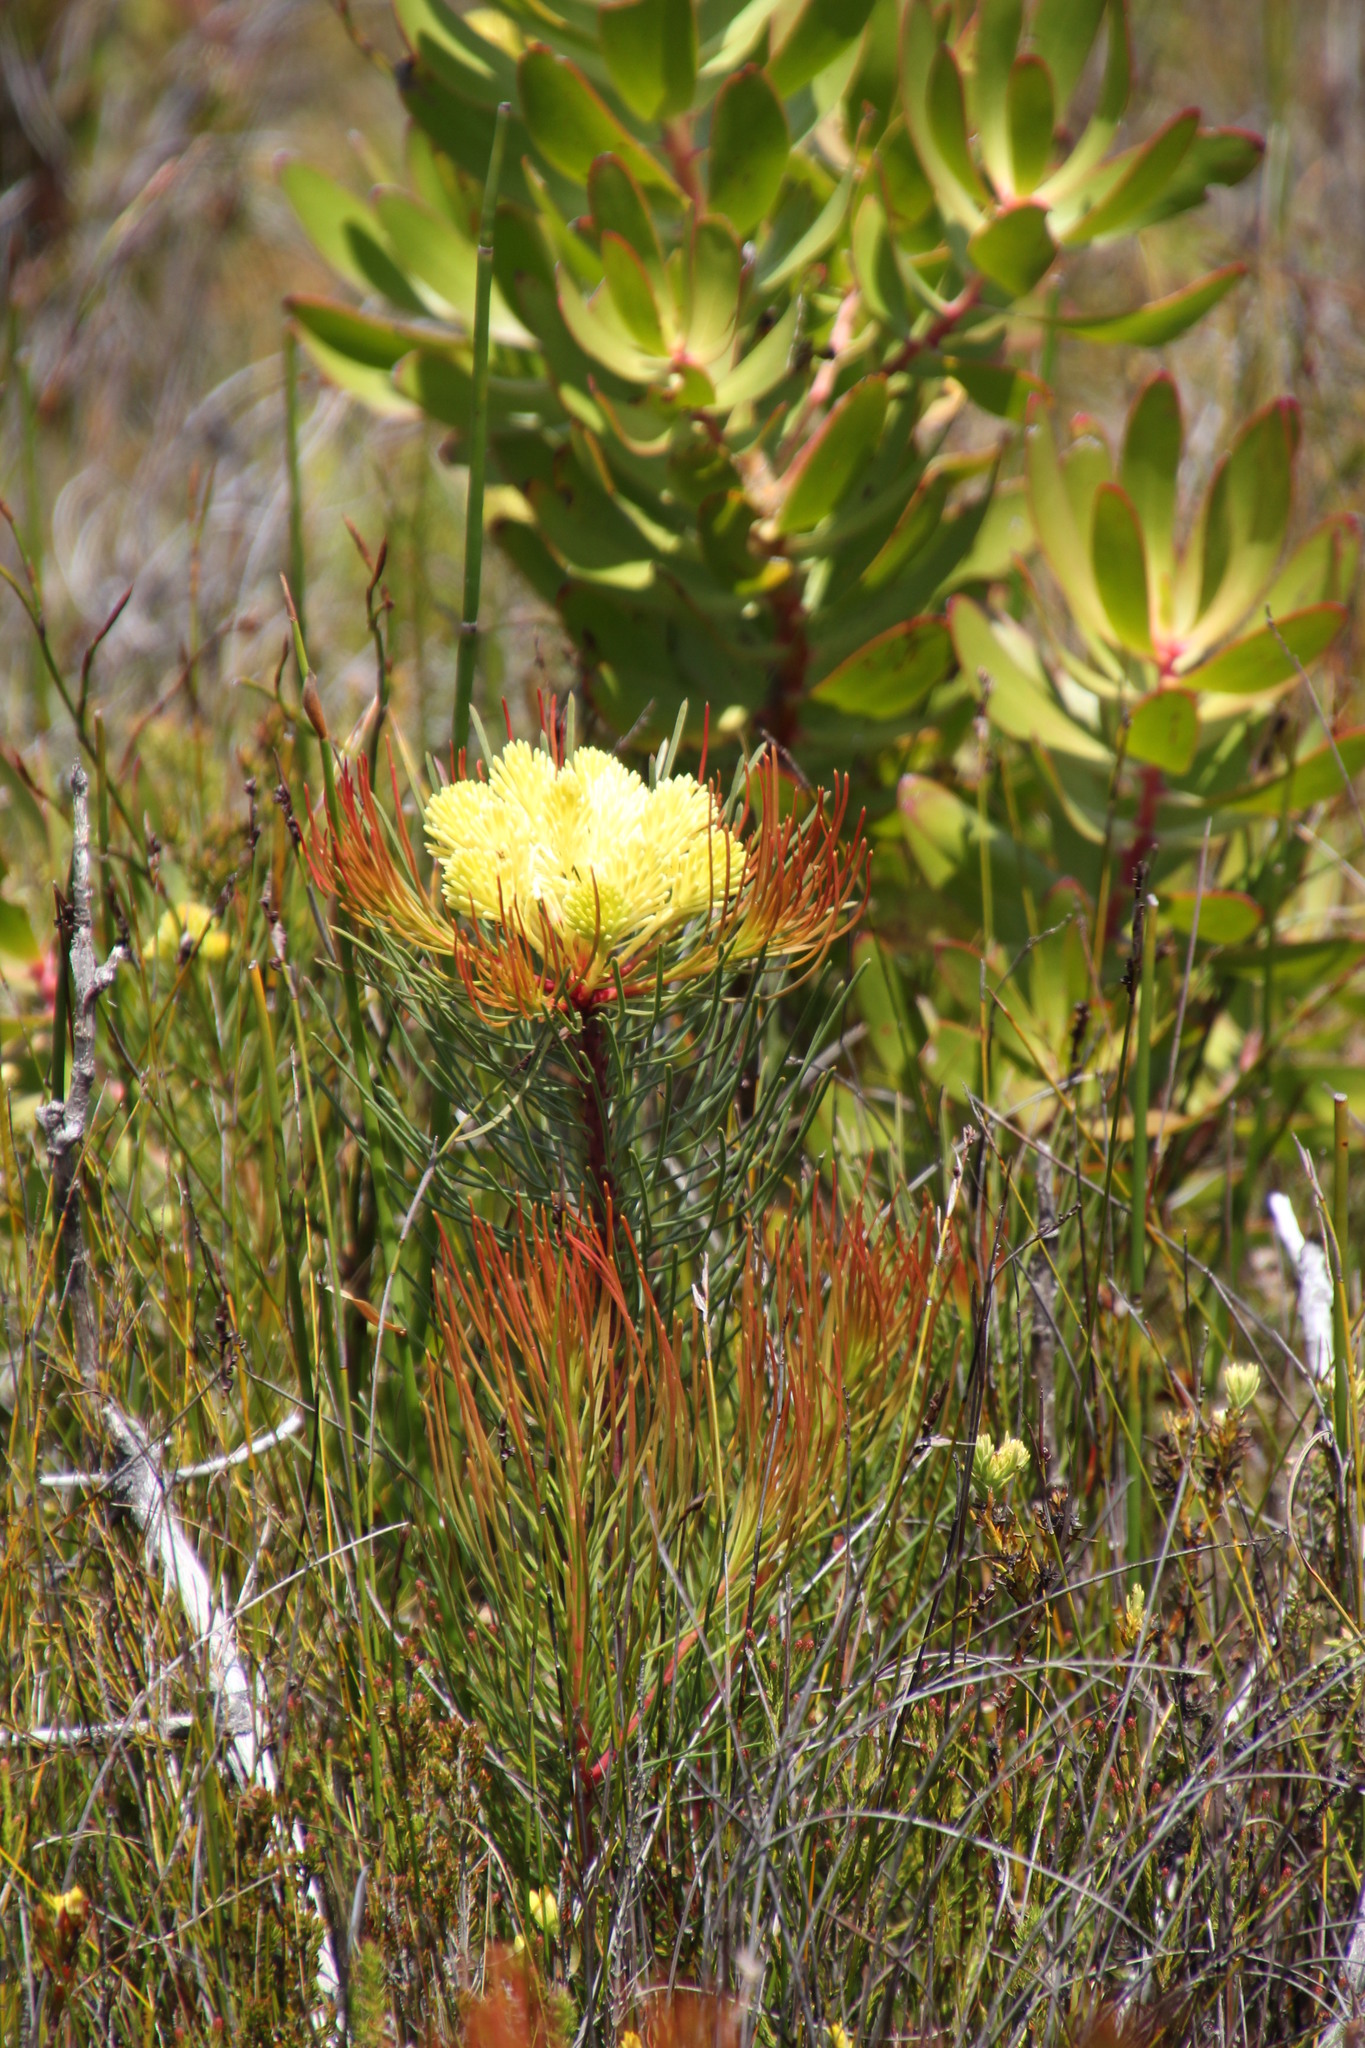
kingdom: Plantae
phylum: Tracheophyta
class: Magnoliopsida
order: Proteales
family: Proteaceae
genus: Aulax
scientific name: Aulax cancellata
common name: Channel-leaf featherbush
